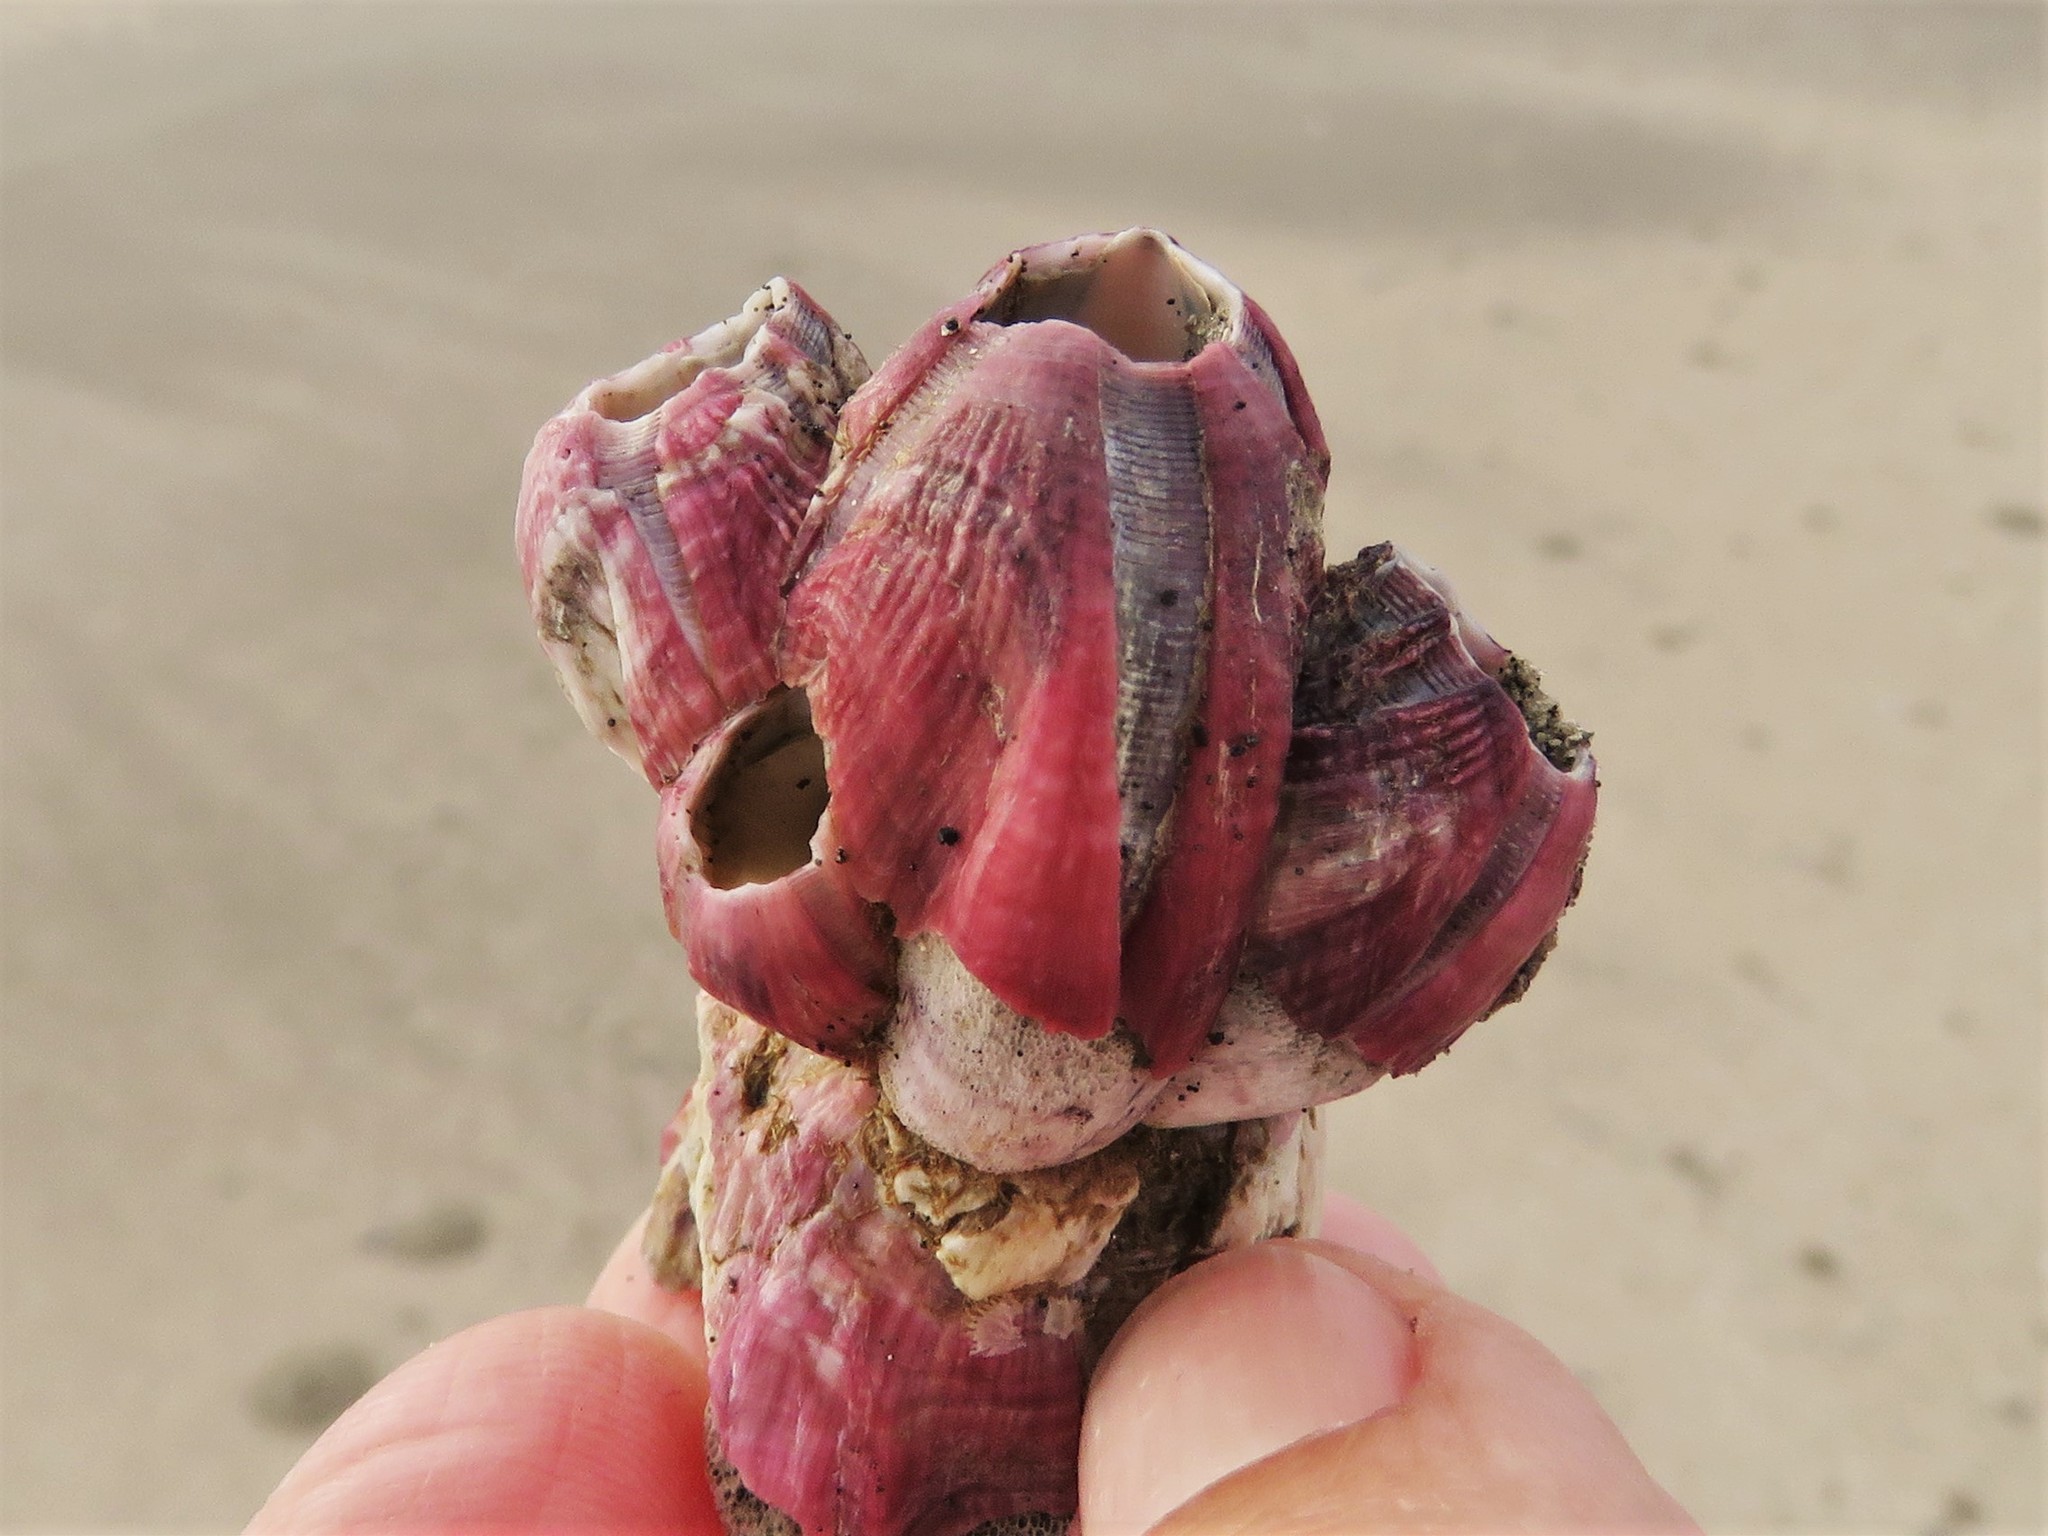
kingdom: Animalia
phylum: Arthropoda
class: Maxillopoda
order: Sessilia
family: Balanidae
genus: Megabalanus
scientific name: Megabalanus tintinnabulum
